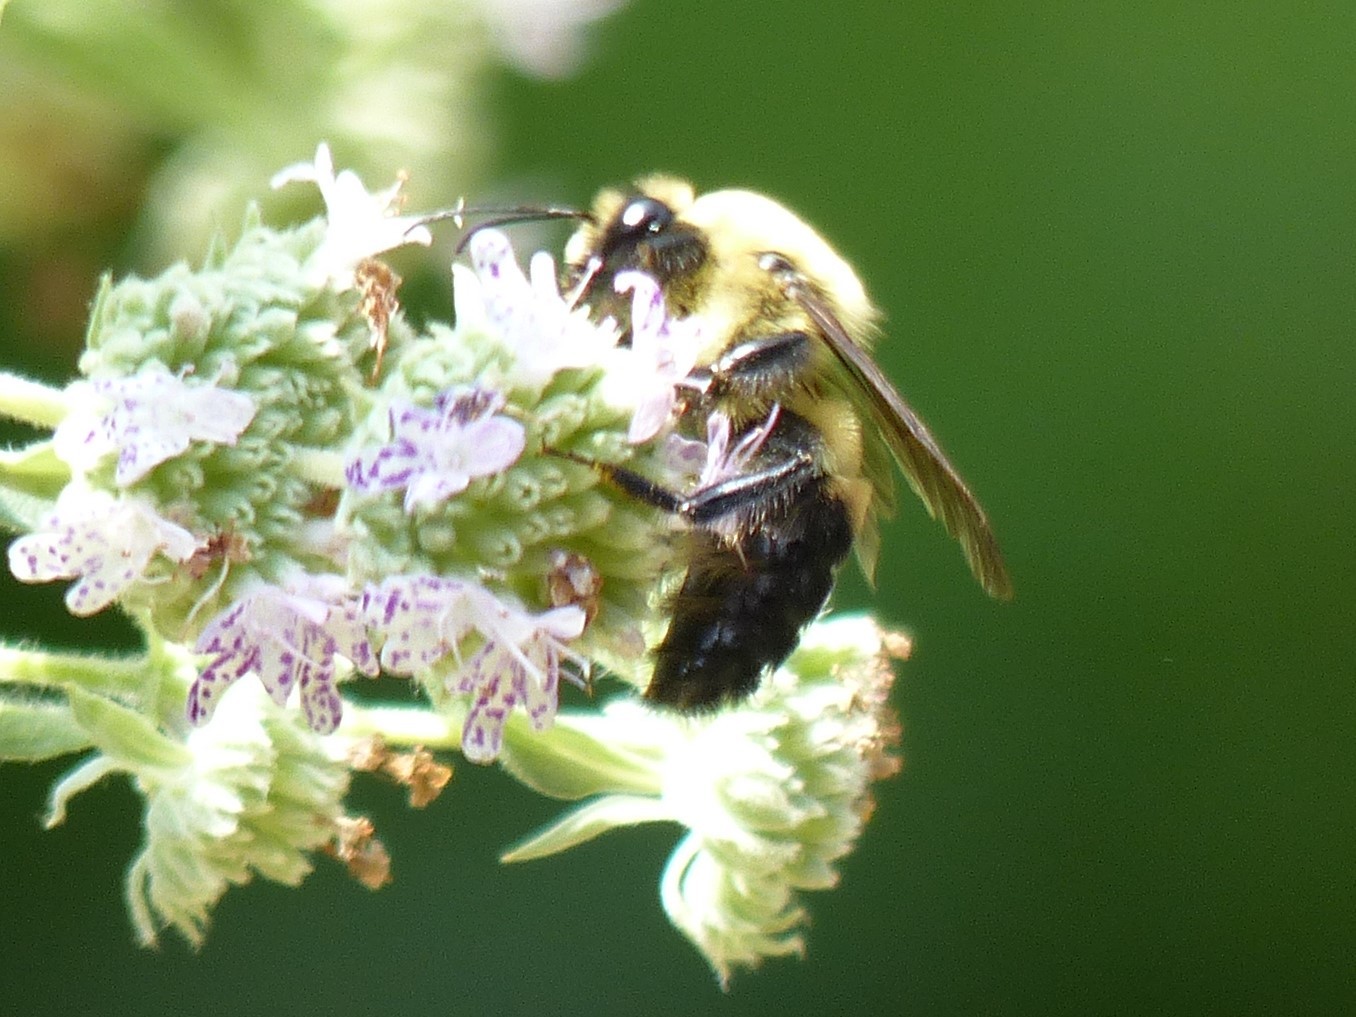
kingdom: Animalia
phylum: Arthropoda
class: Insecta
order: Hymenoptera
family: Apidae
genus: Bombus
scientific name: Bombus griseocollis
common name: Brown-belted bumble bee
